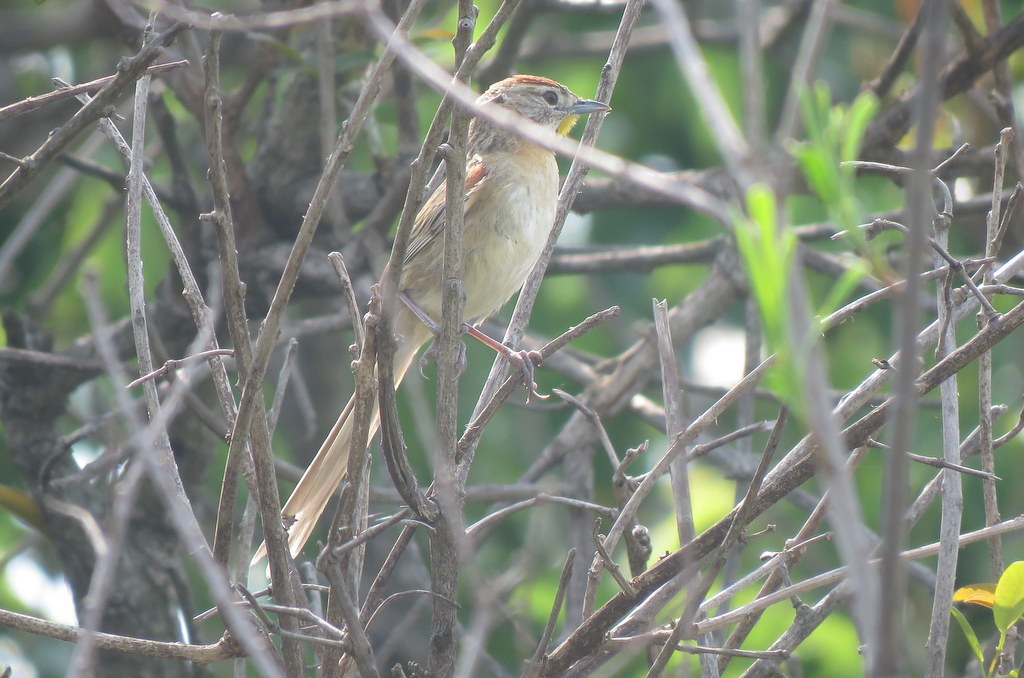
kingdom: Animalia
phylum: Chordata
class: Aves
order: Passeriformes
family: Furnariidae
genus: Schoeniophylax
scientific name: Schoeniophylax phryganophilus
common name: Chotoy spinetail
